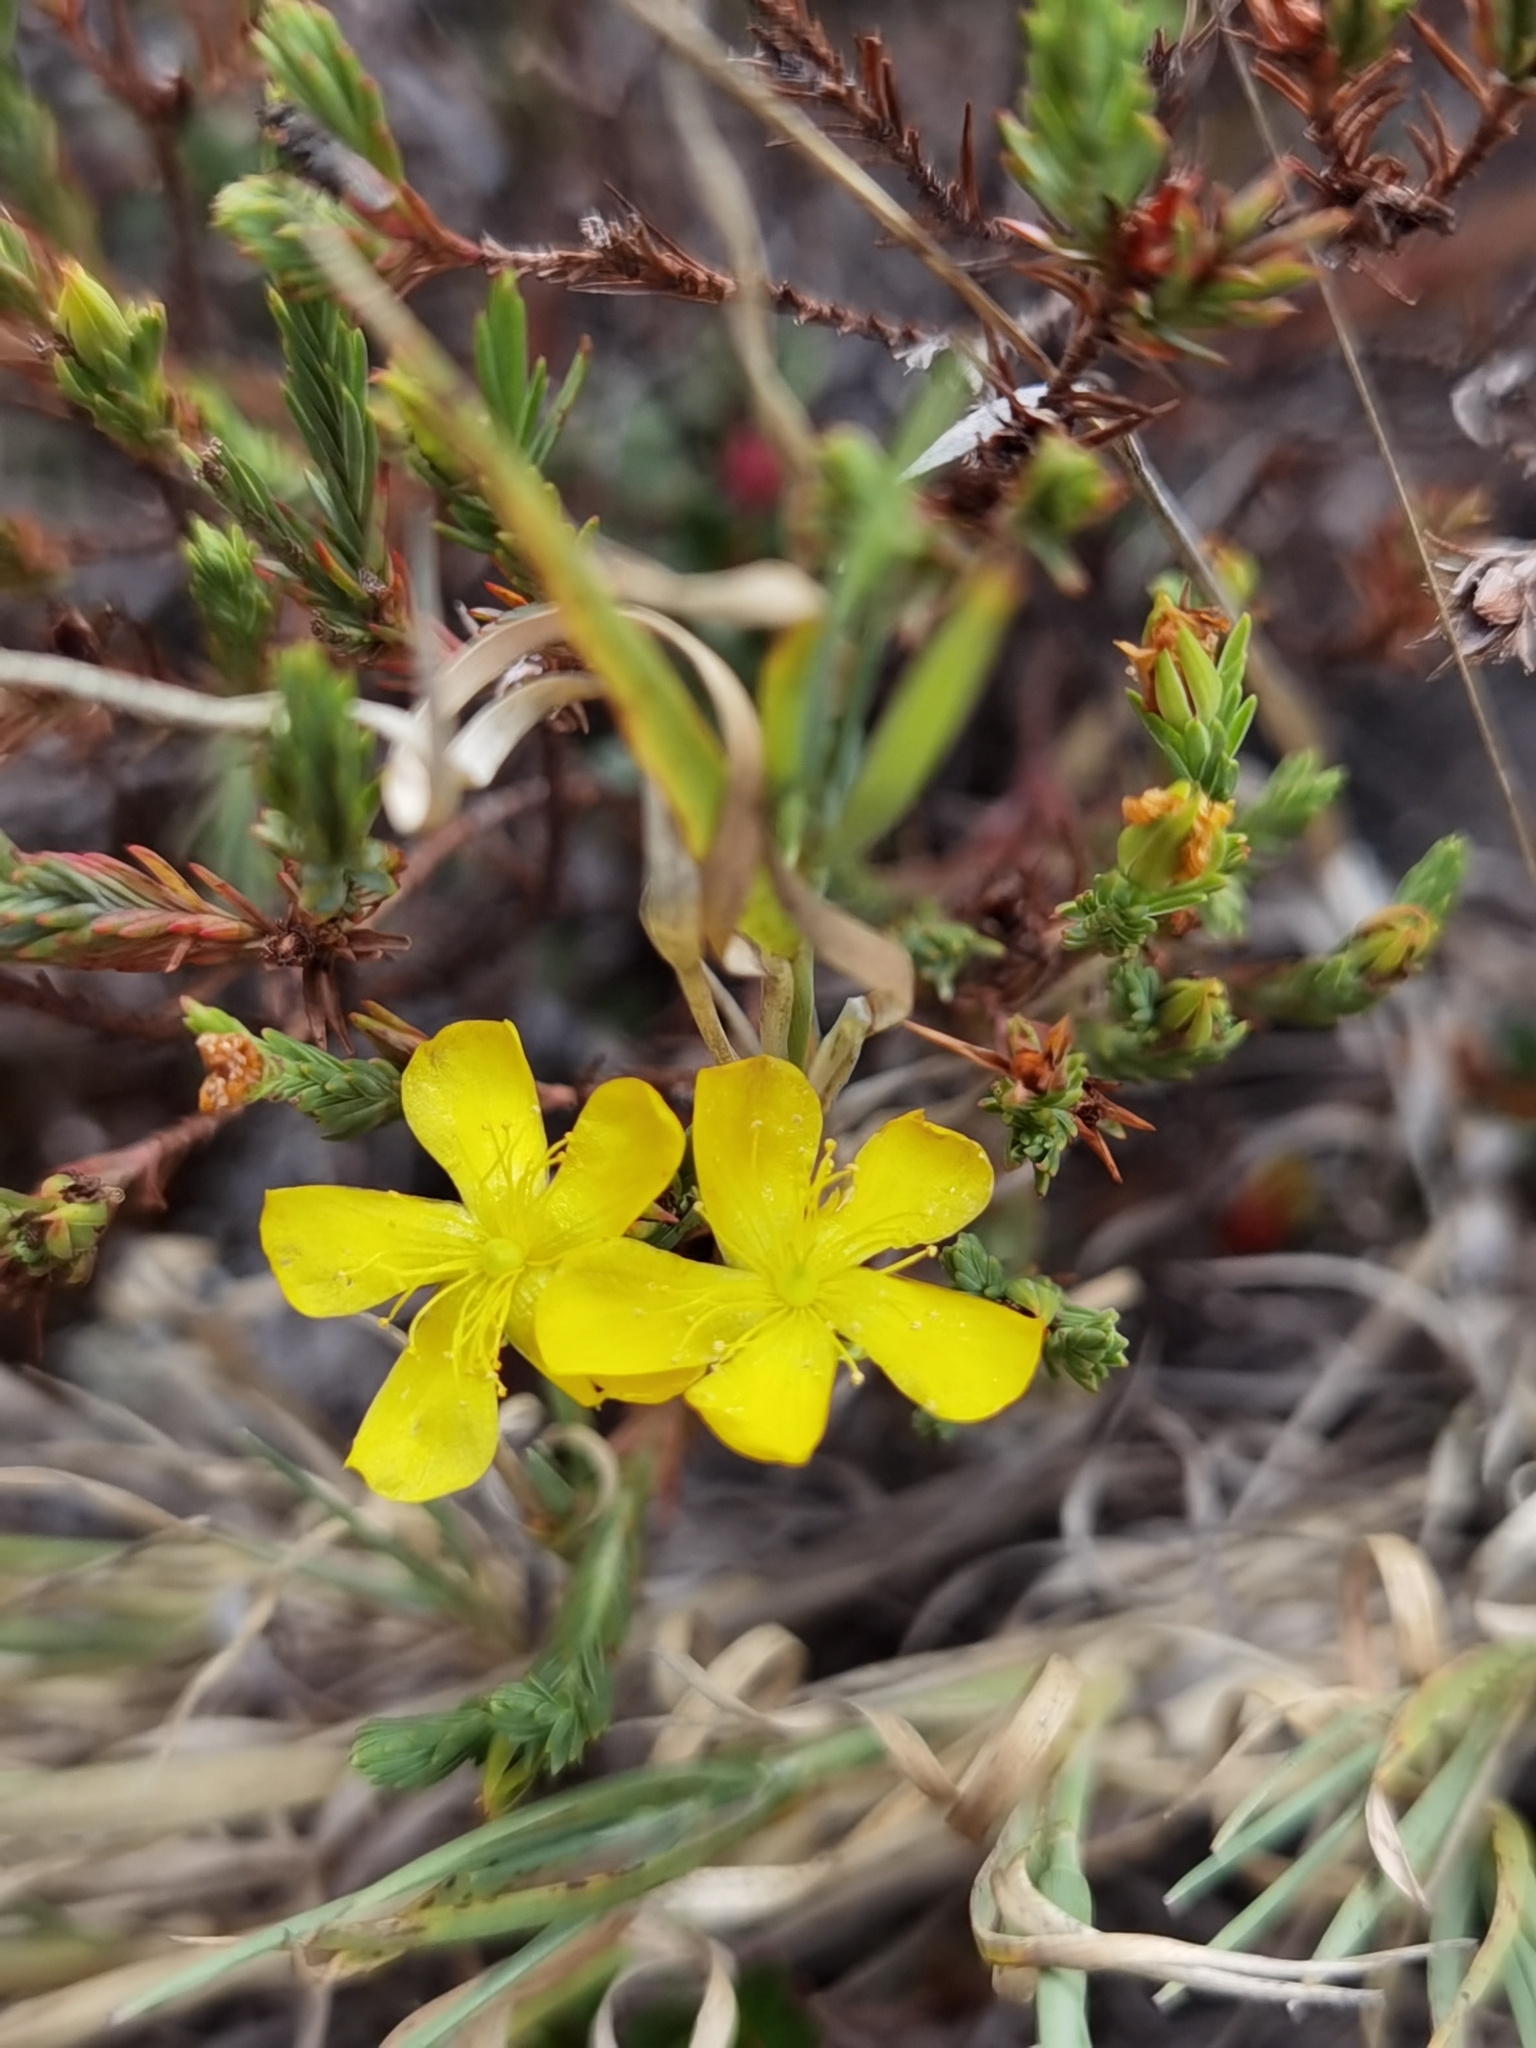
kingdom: Plantae
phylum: Tracheophyta
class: Magnoliopsida
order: Malpighiales
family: Hypericaceae
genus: Hypericum
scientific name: Hypericum costaricense
